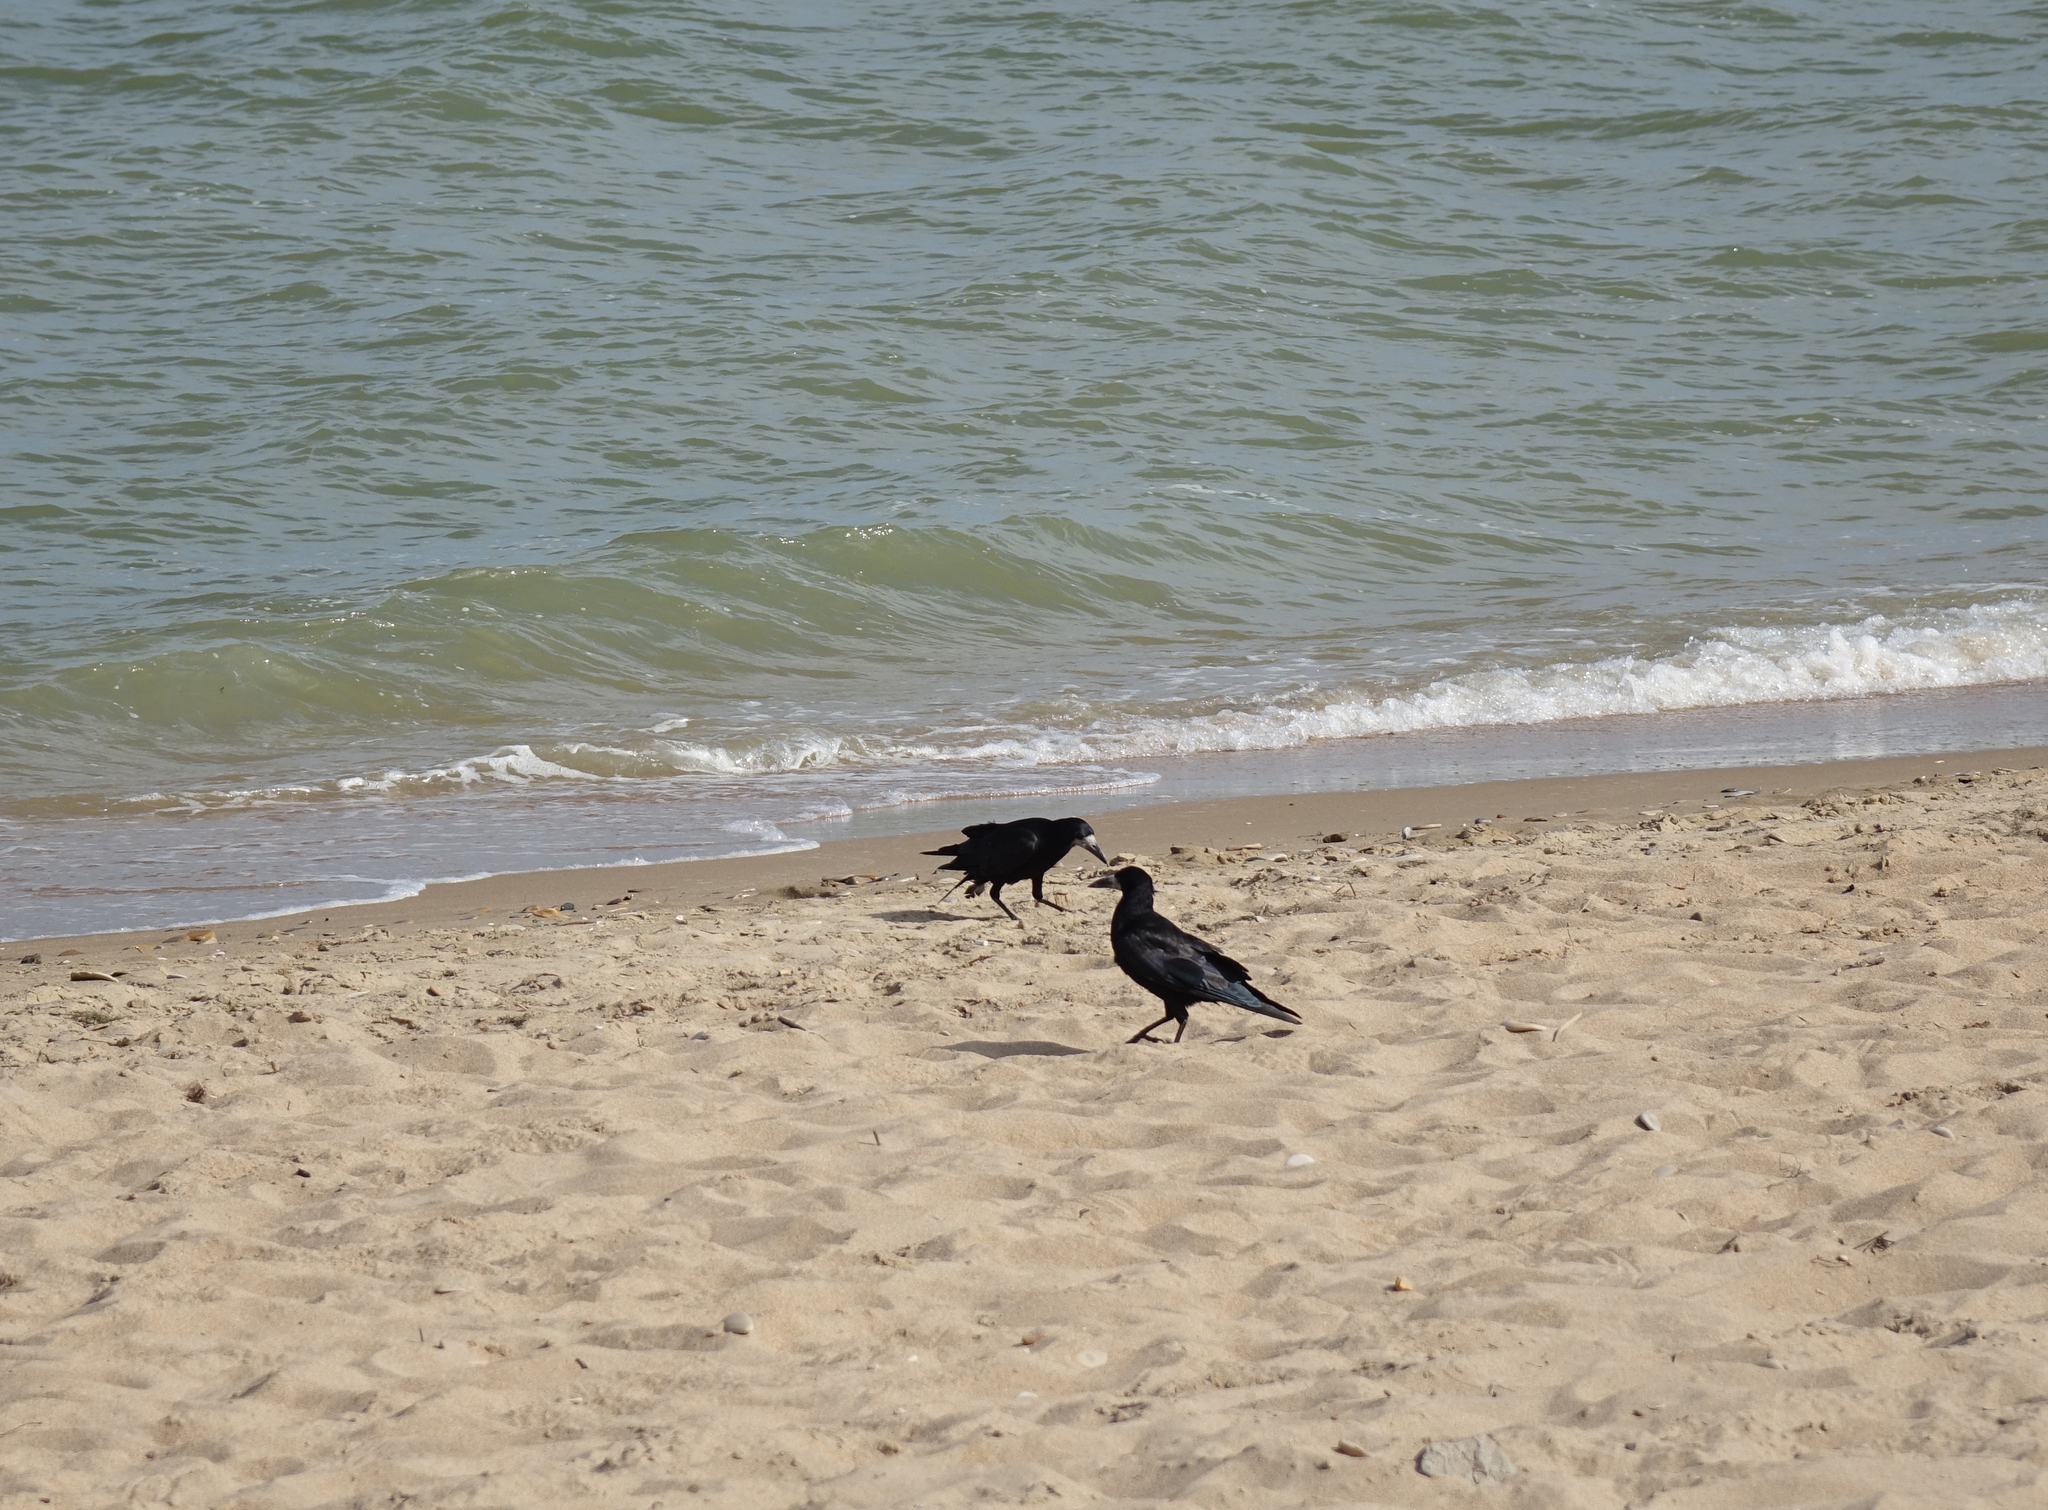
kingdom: Animalia
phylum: Chordata
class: Aves
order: Passeriformes
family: Corvidae
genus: Corvus
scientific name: Corvus frugilegus
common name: Rook
